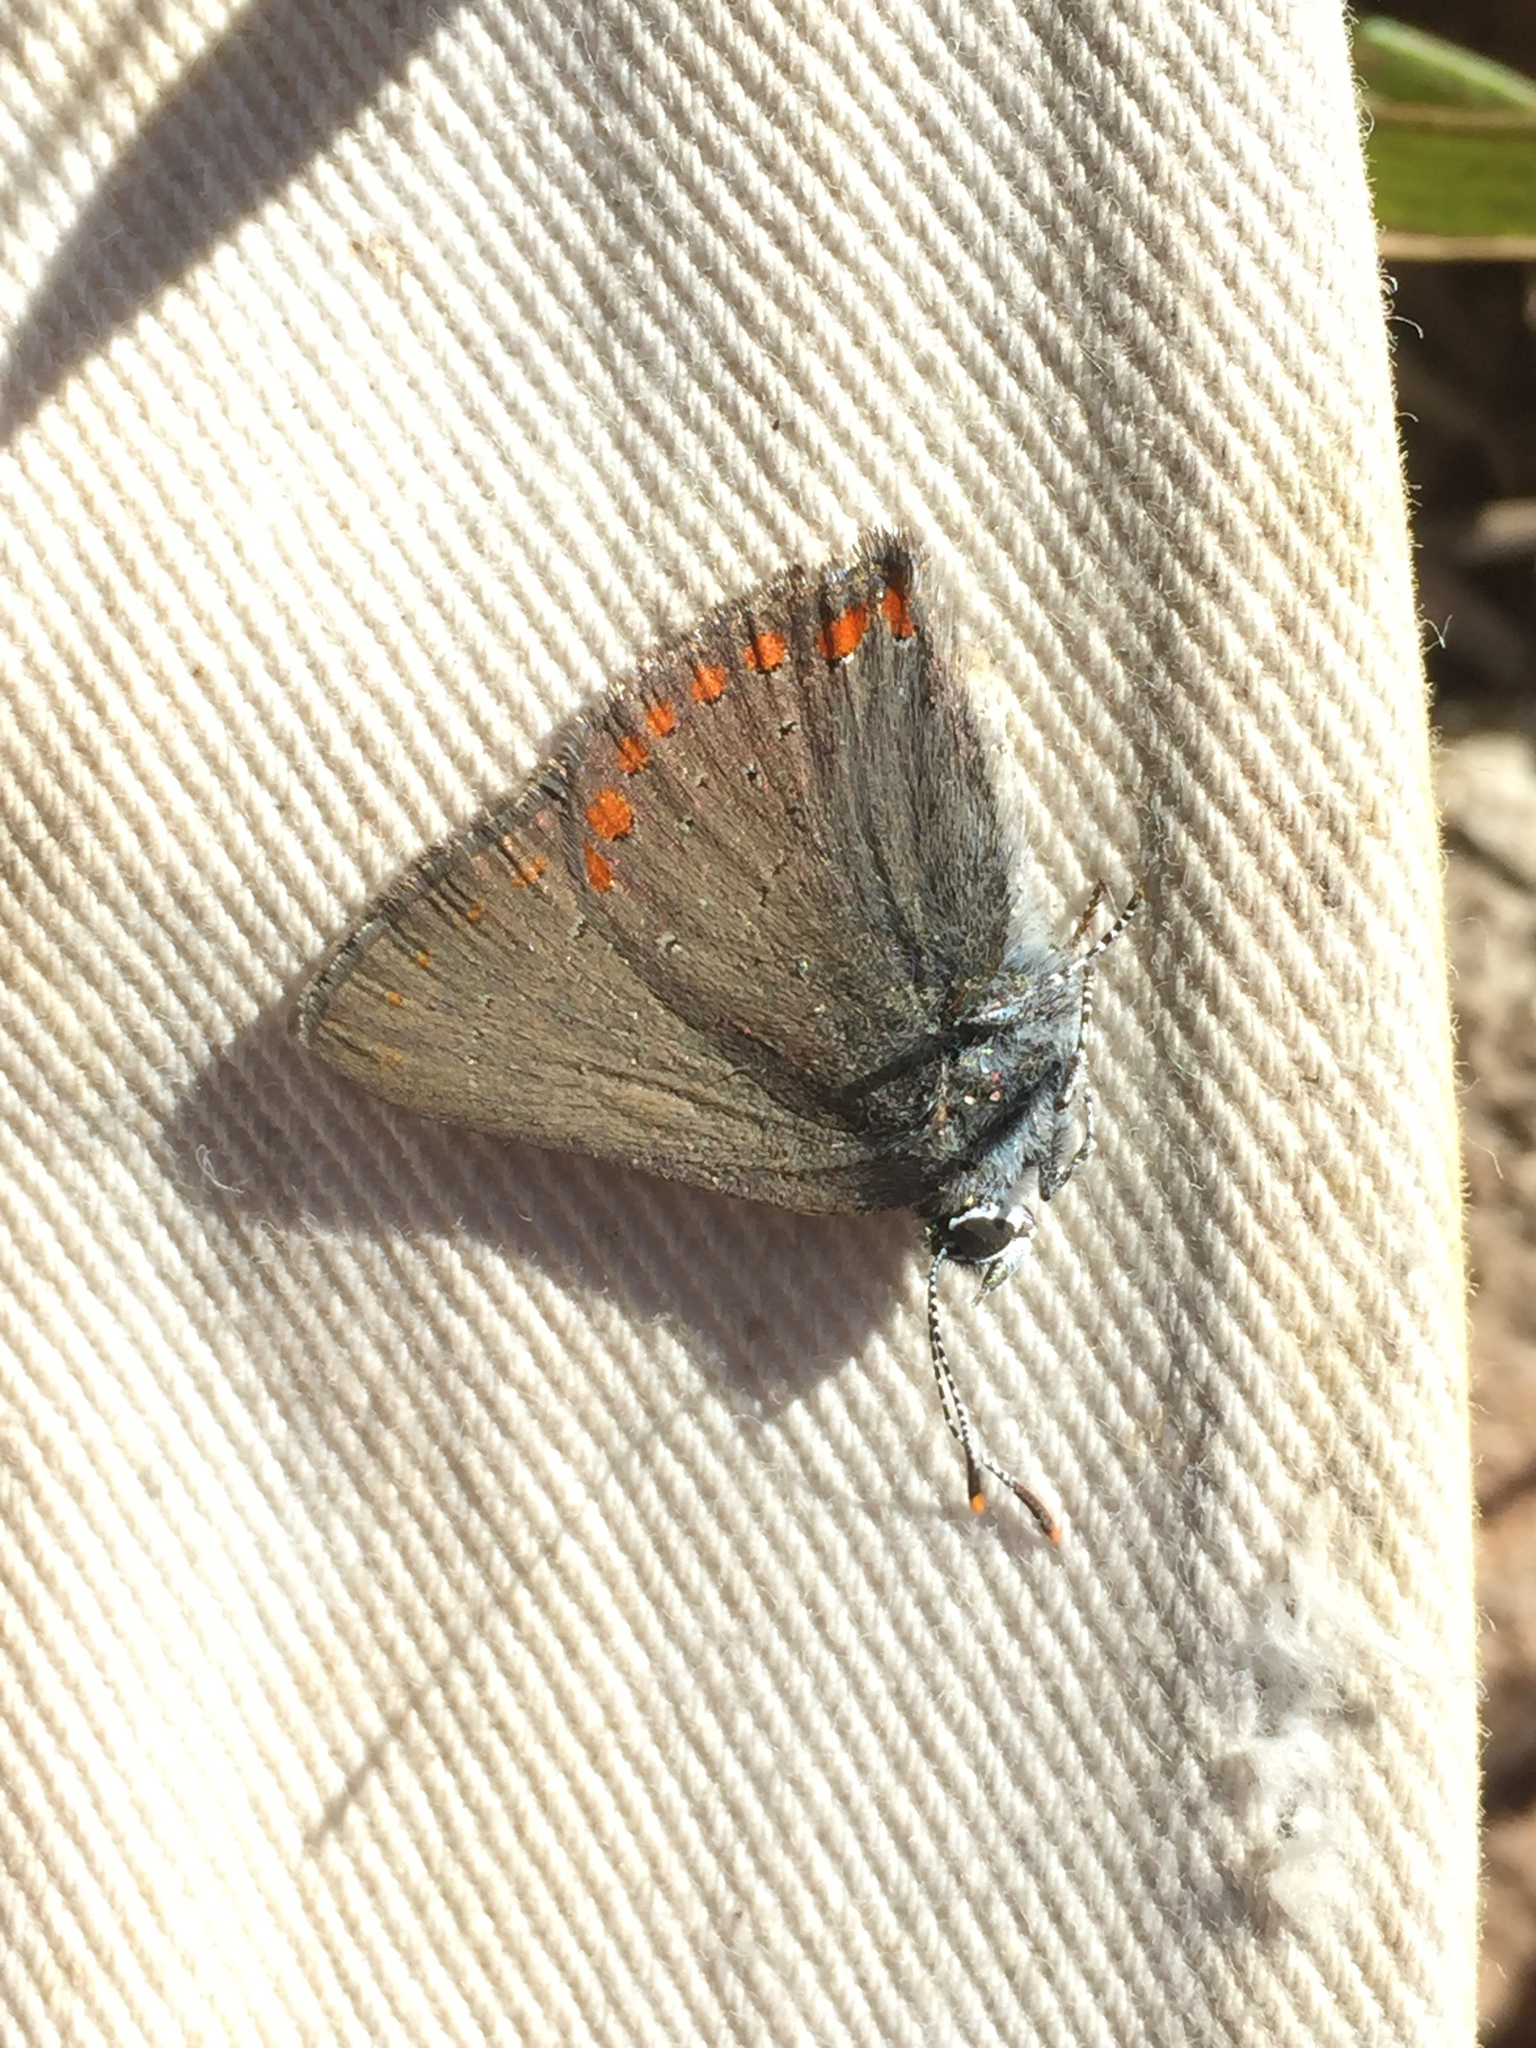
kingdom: Animalia
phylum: Arthropoda
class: Insecta
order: Lepidoptera
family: Lycaenidae
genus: Harkenclenus
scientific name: Harkenclenus titus
